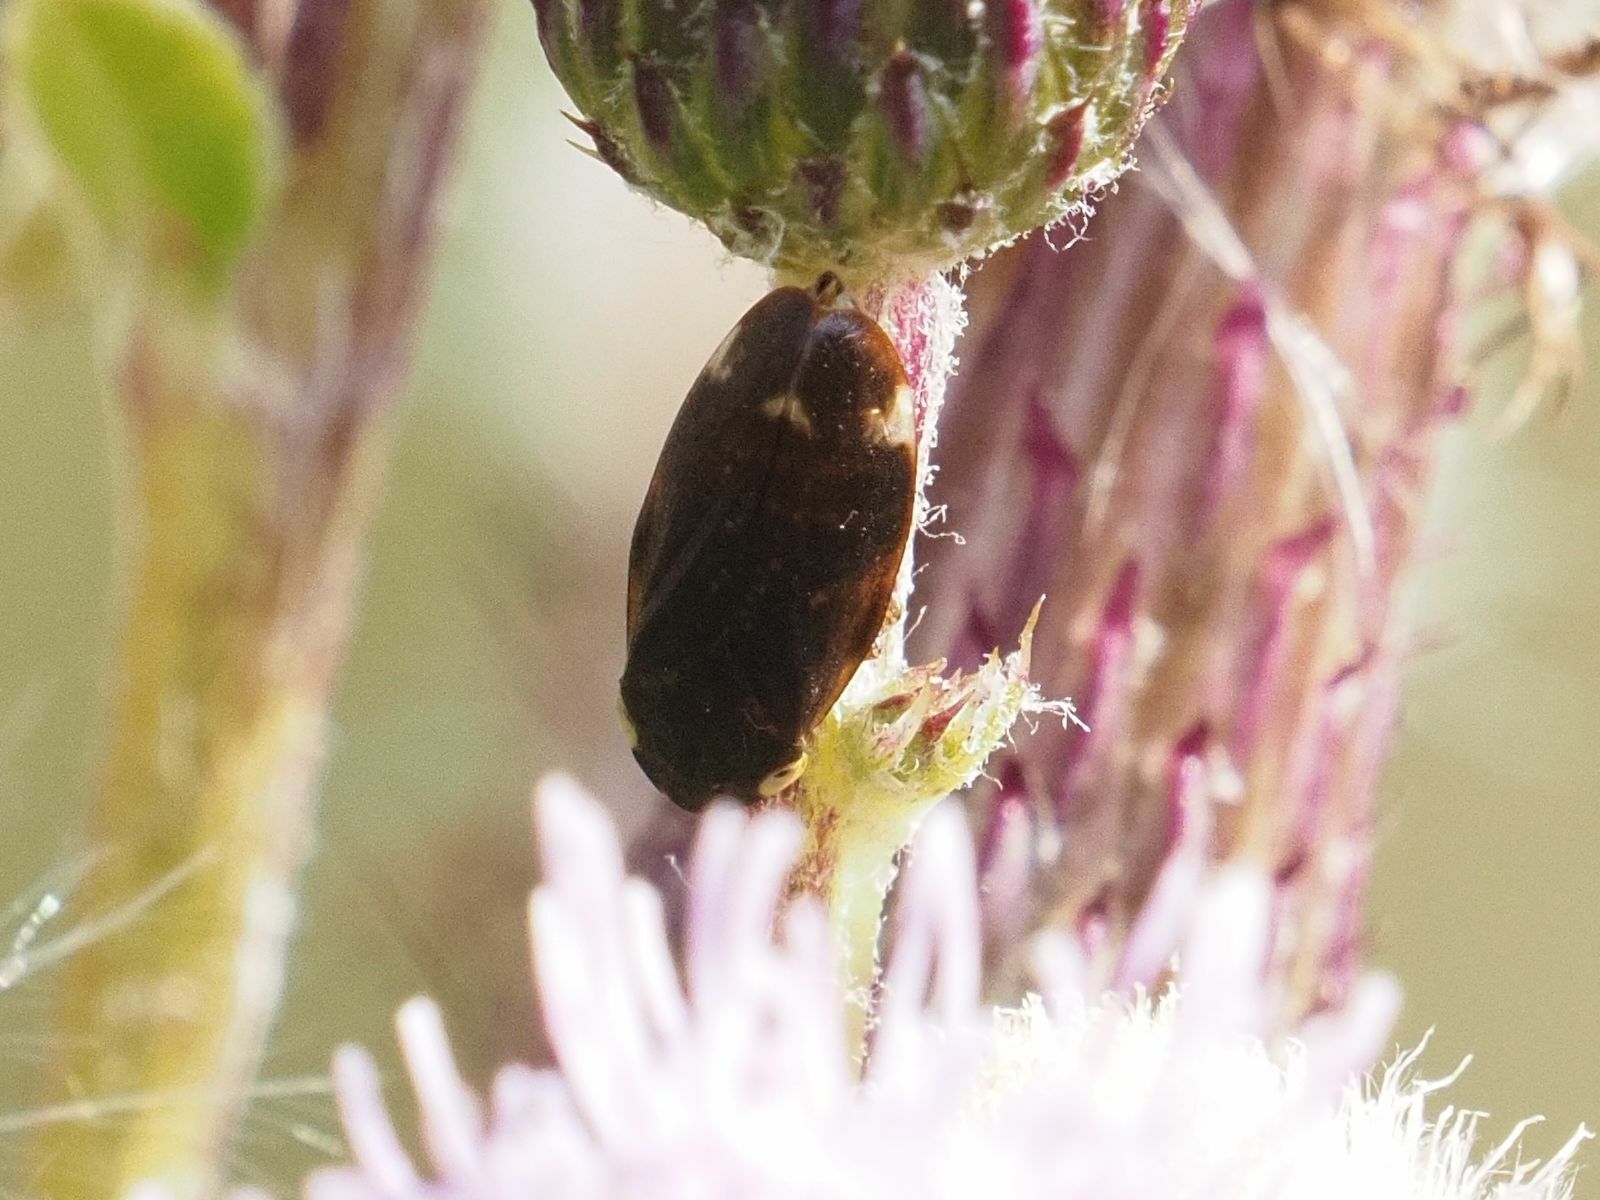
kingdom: Animalia
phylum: Arthropoda
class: Insecta
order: Hemiptera
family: Aphrophoridae
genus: Philaenus
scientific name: Philaenus spumarius
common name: Meadow spittlebug
